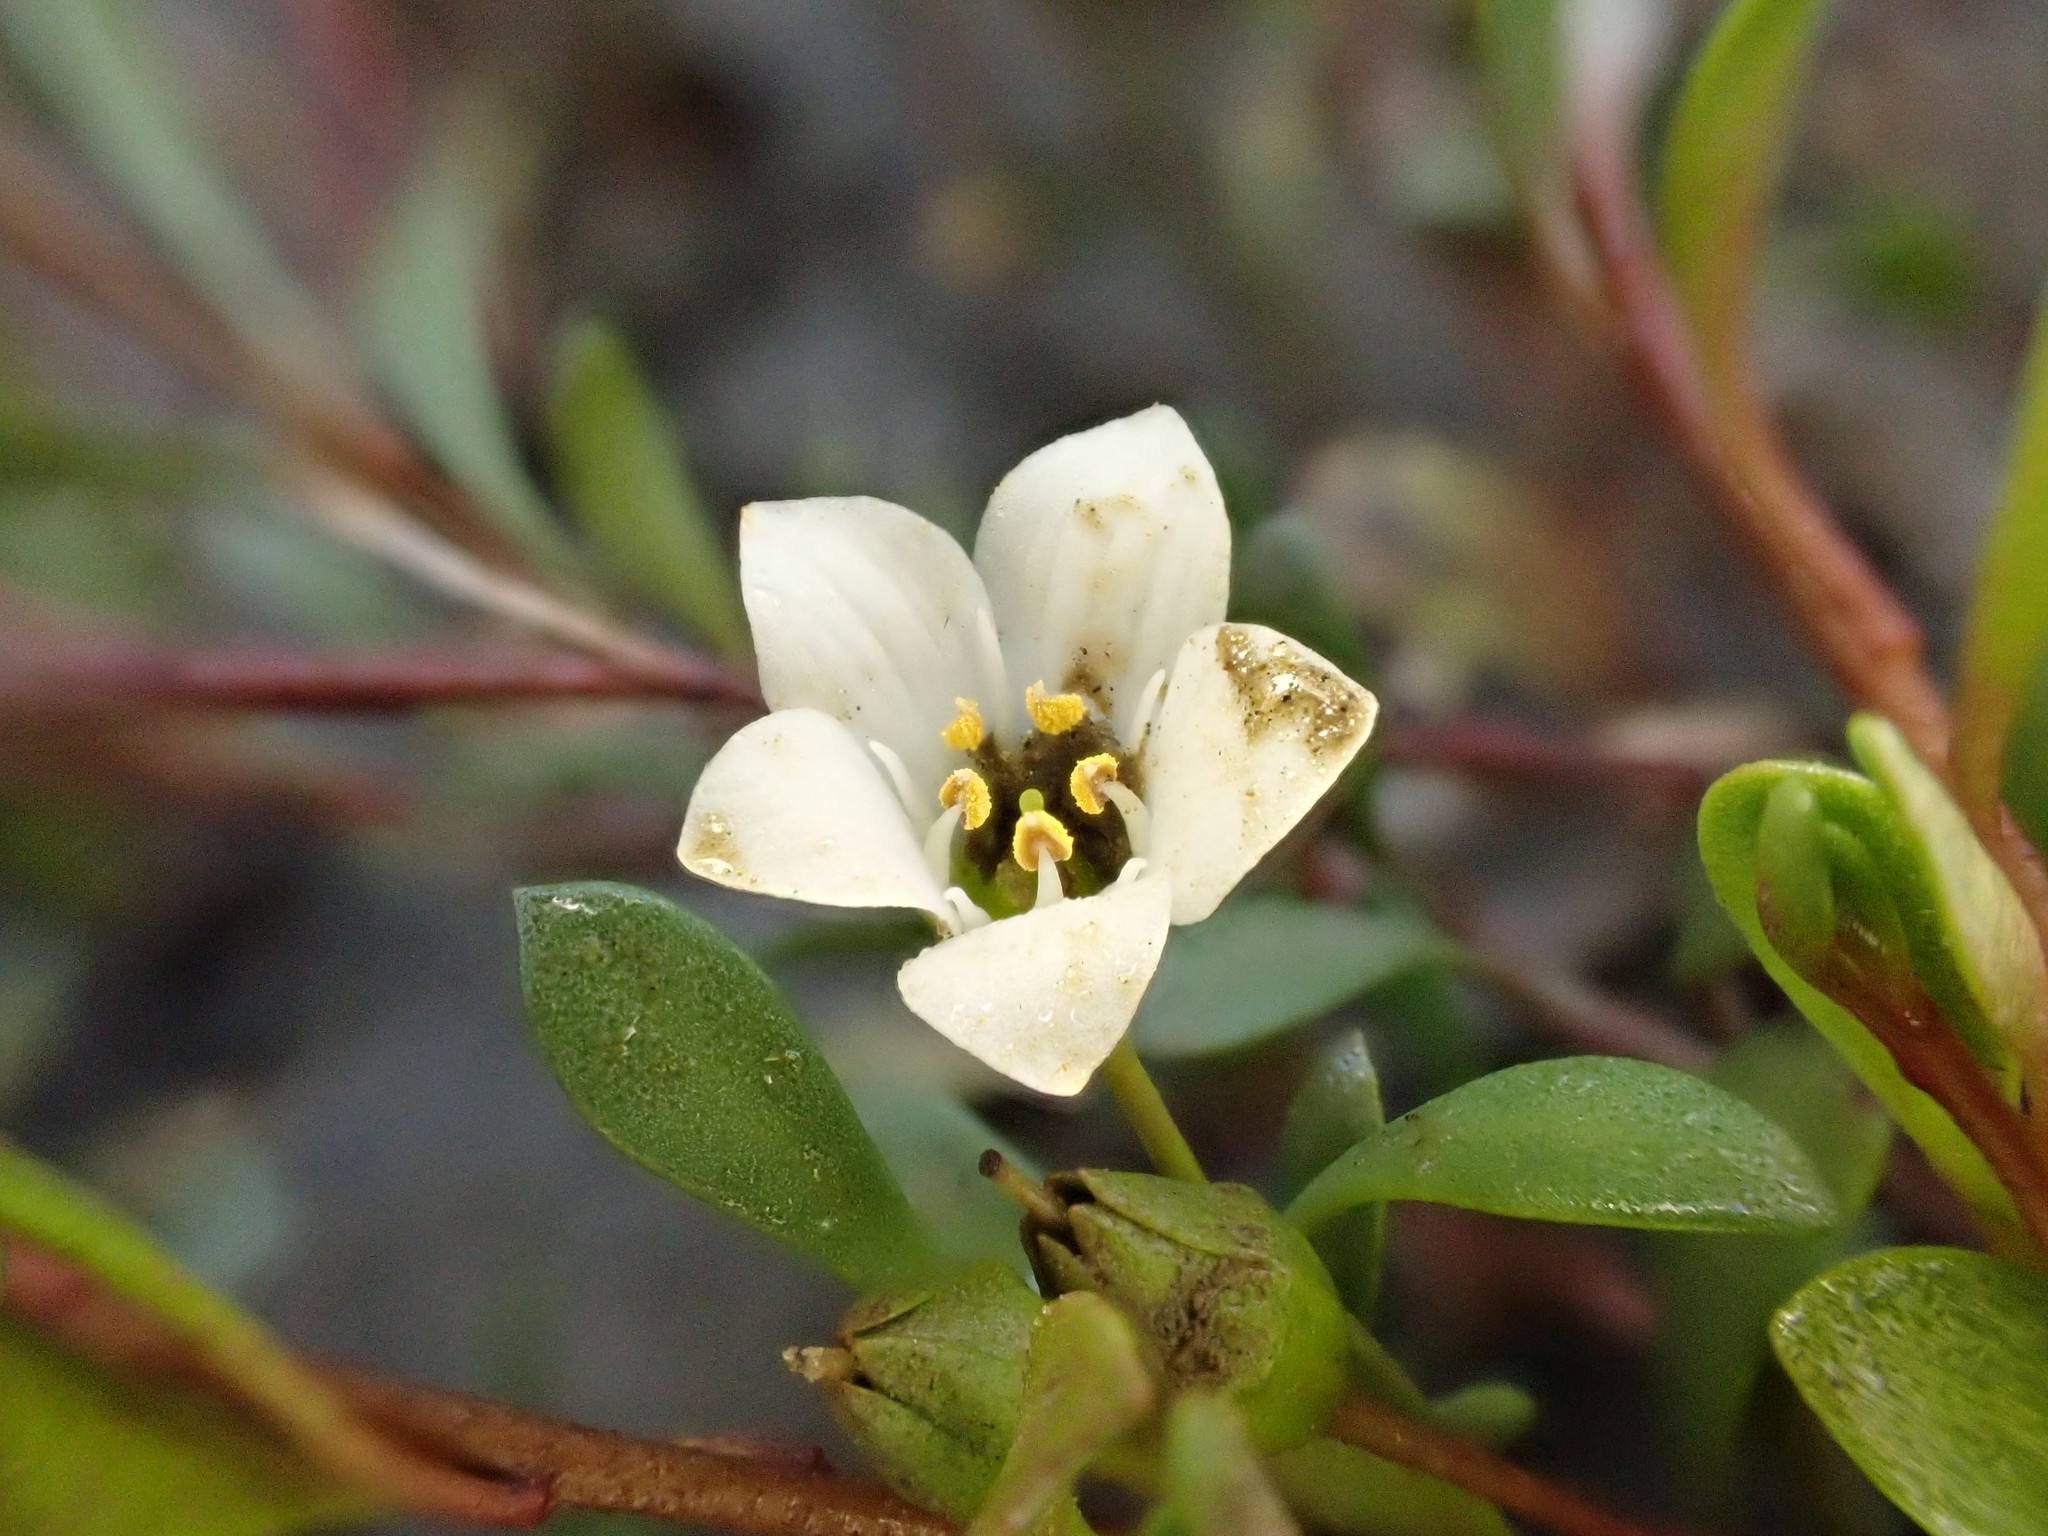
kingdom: Plantae
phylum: Tracheophyta
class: Magnoliopsida
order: Ericales
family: Primulaceae
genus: Samolus
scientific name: Samolus repens
